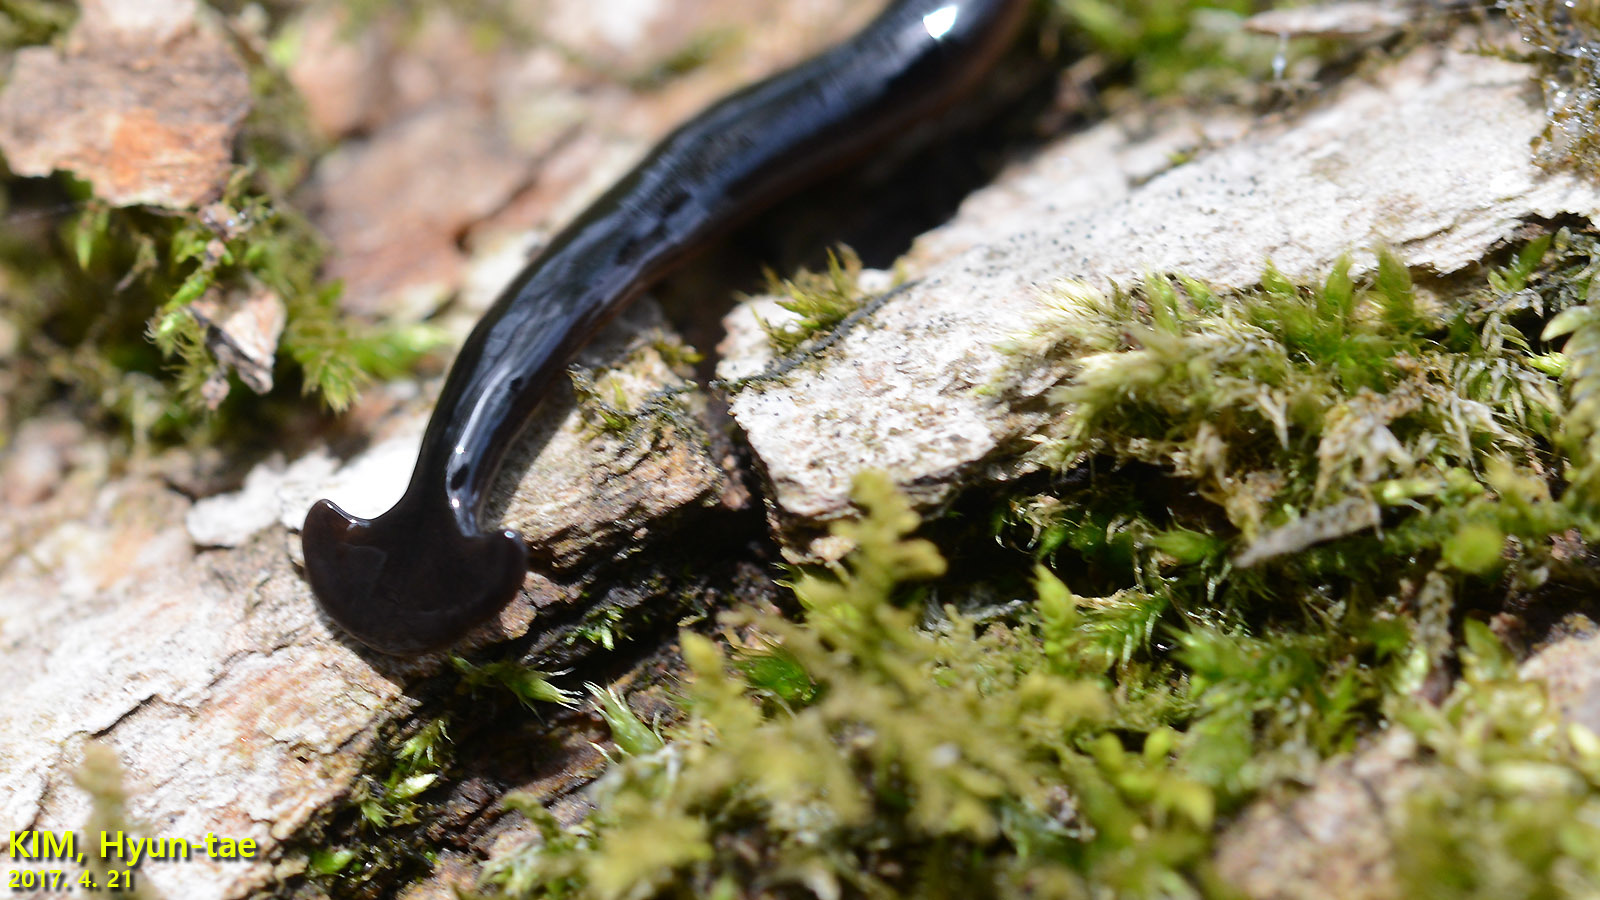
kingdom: Animalia
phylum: Platyhelminthes
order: Tricladida
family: Geoplanidae
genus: Bipalium
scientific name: Bipalium fuscolineatum
